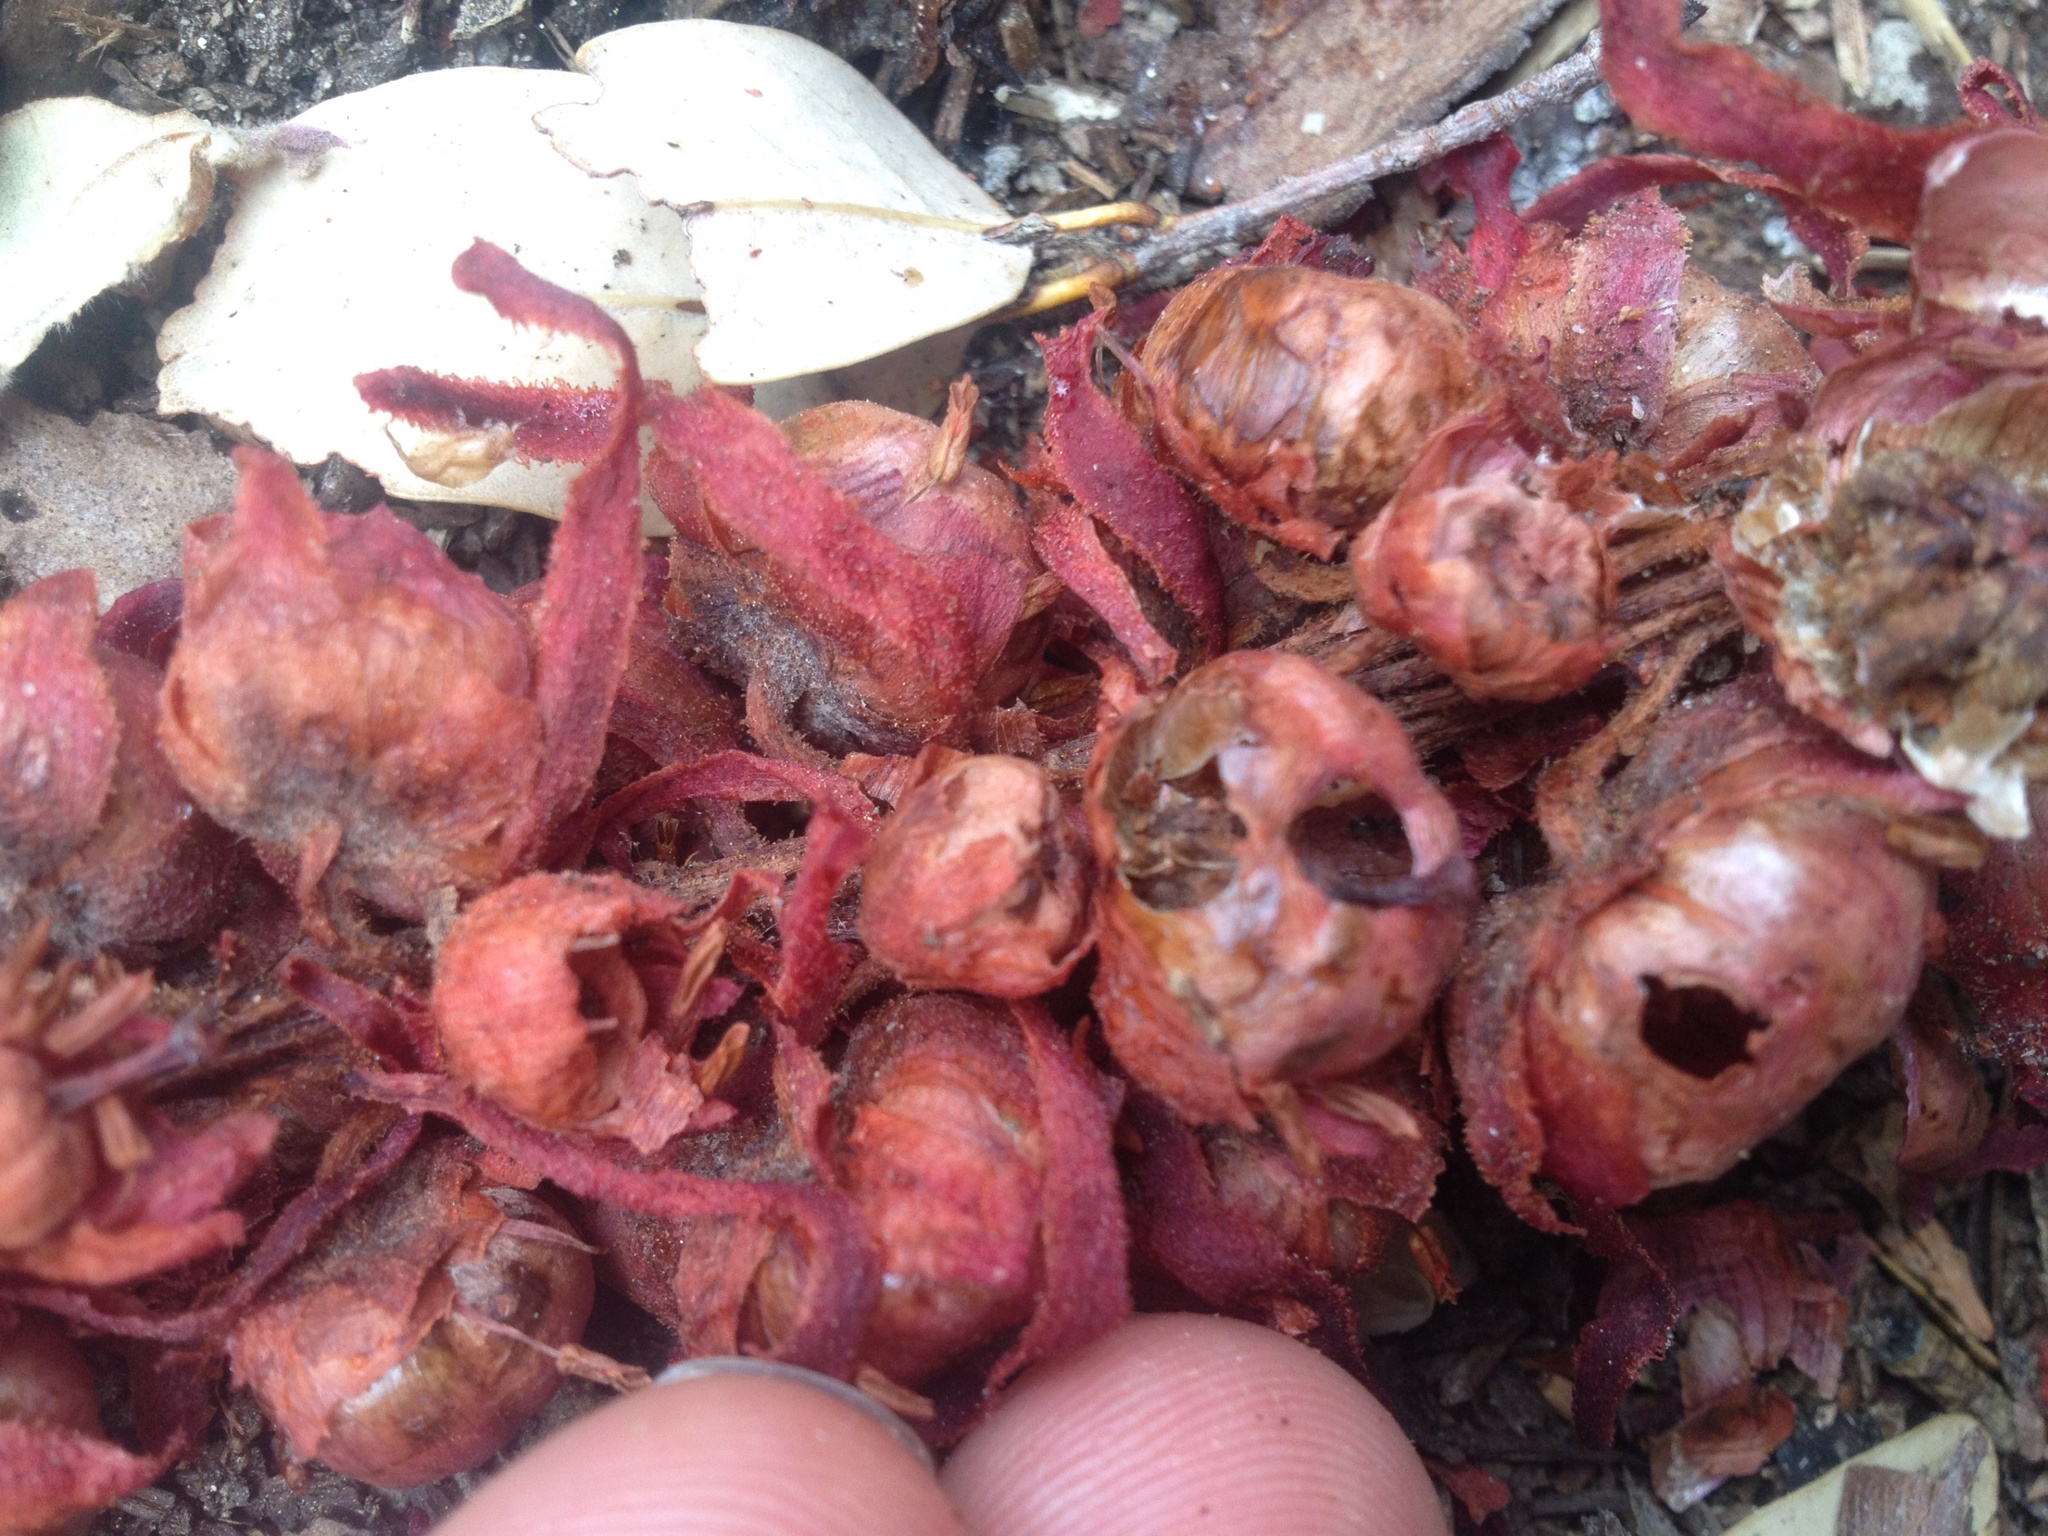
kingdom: Plantae
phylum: Tracheophyta
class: Magnoliopsida
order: Ericales
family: Ericaceae
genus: Sarcodes
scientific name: Sarcodes sanguinea
